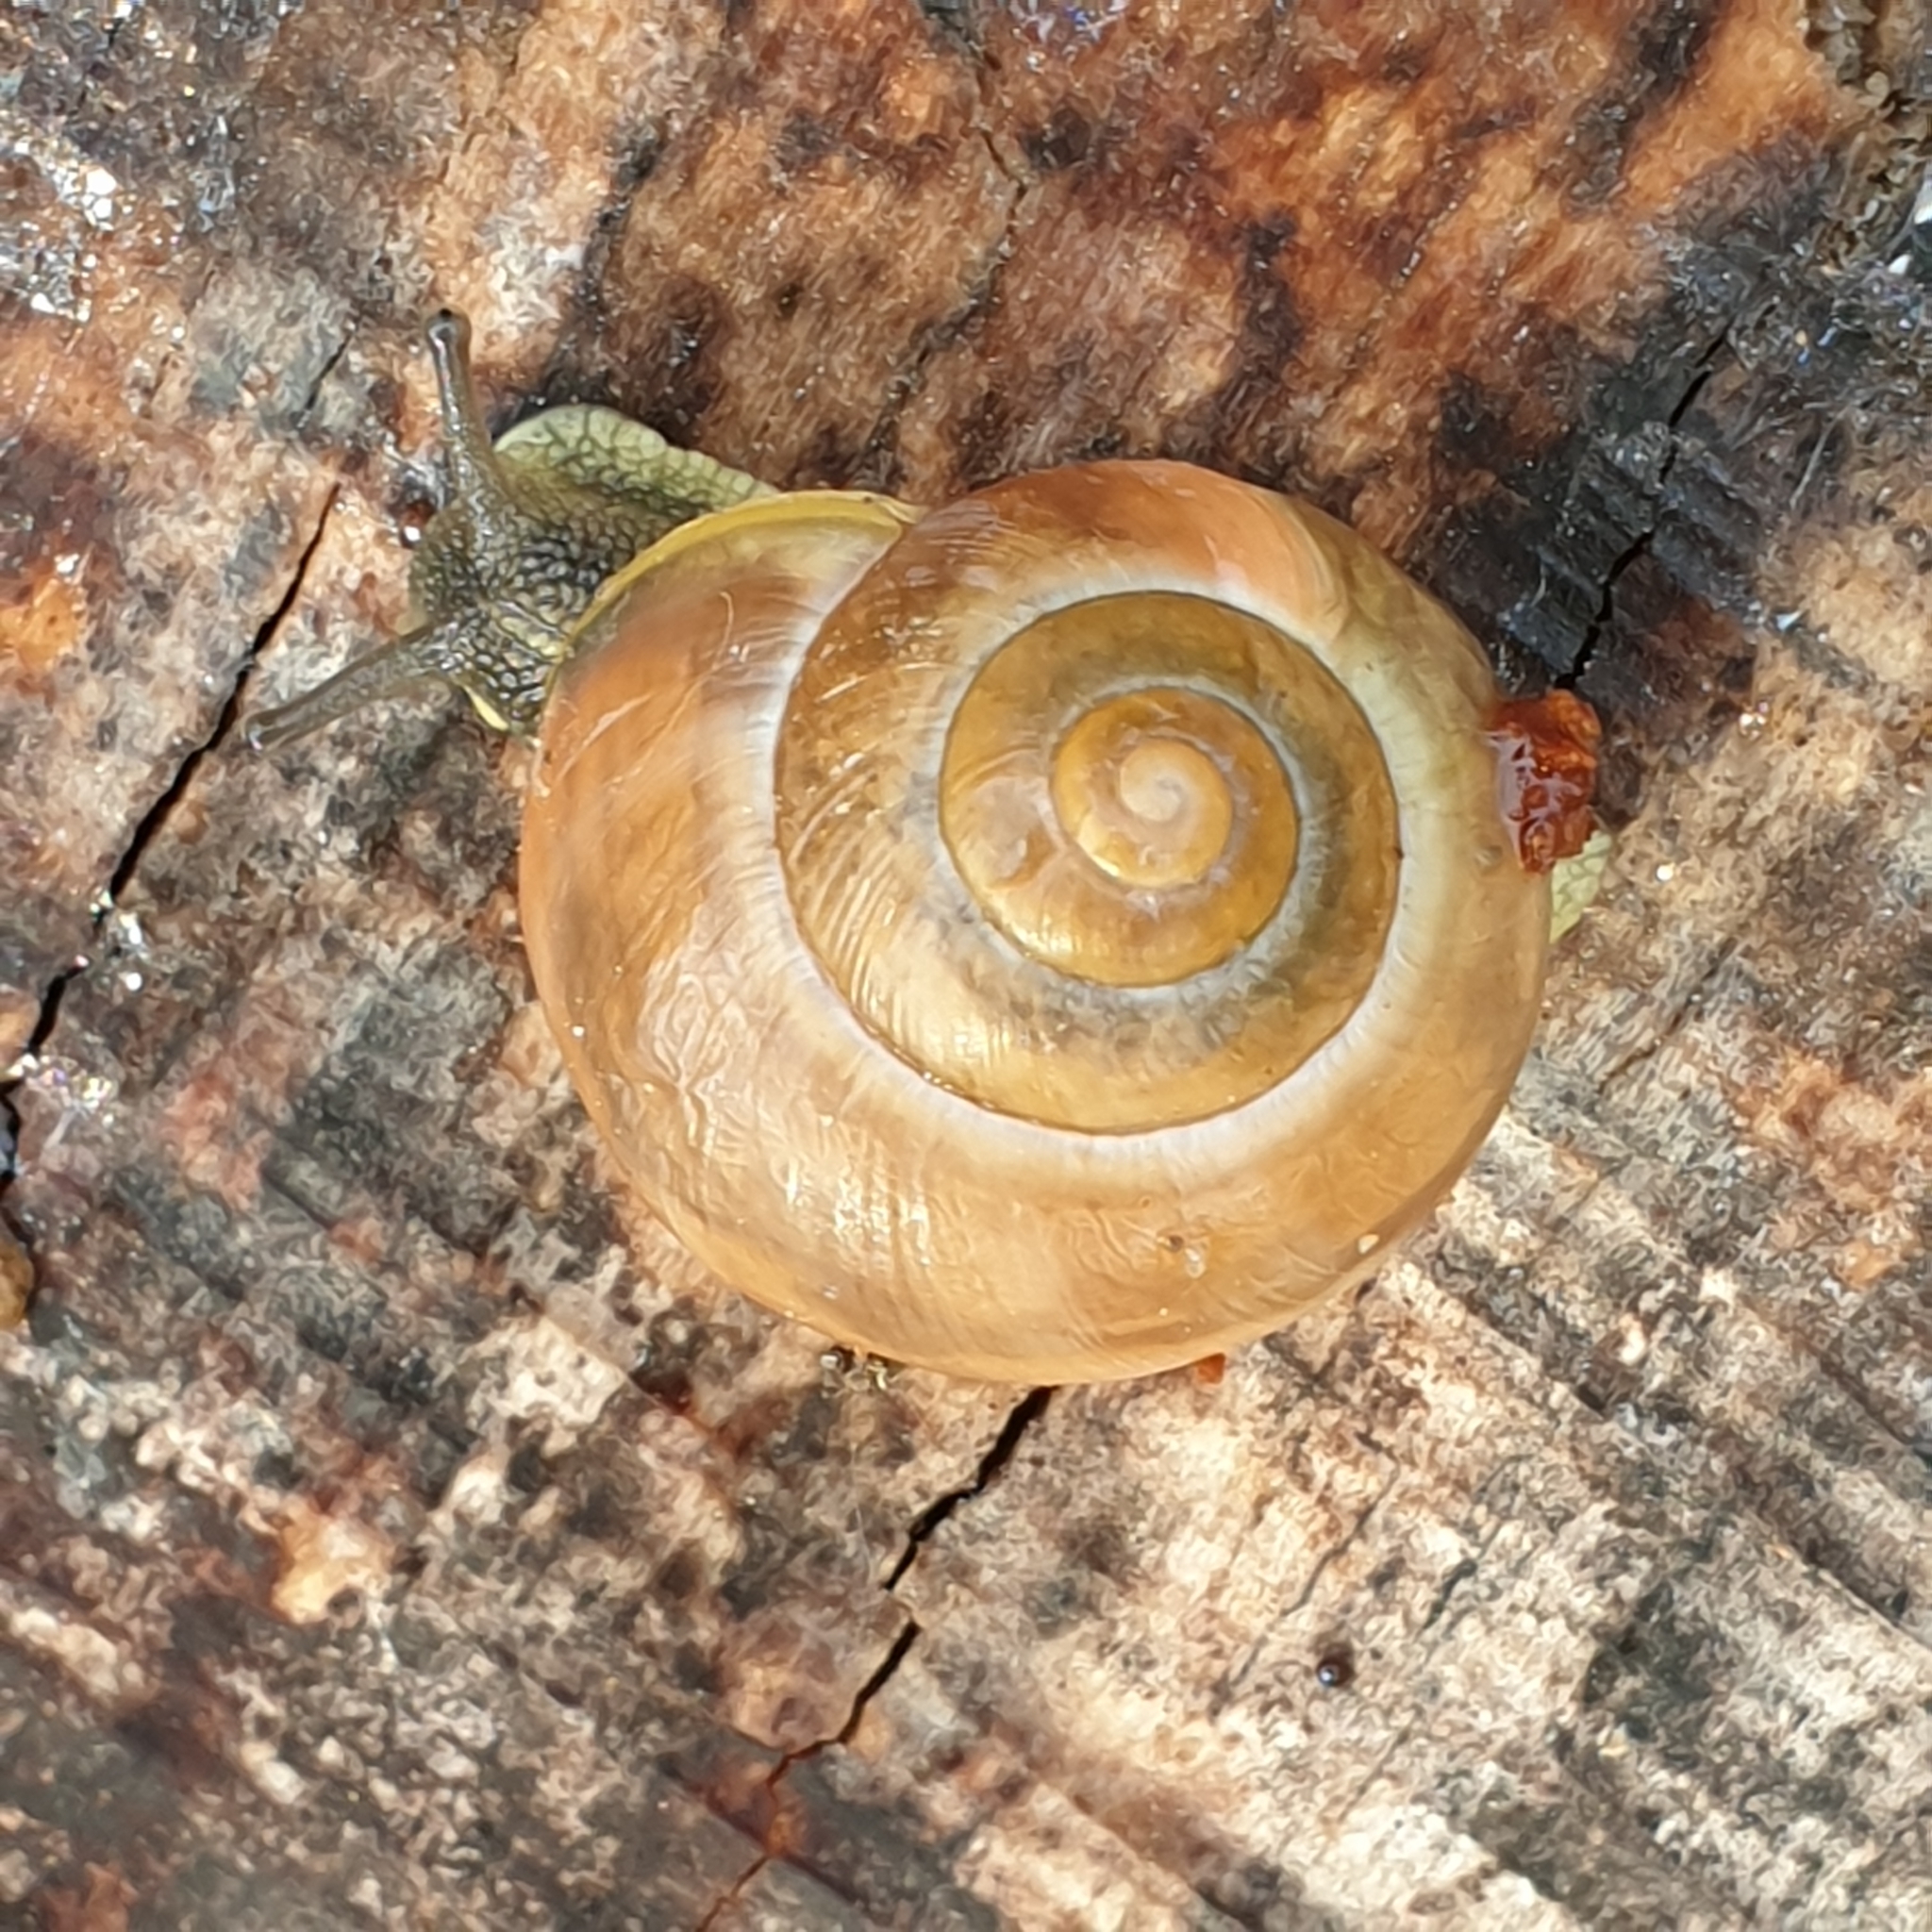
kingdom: Animalia
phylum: Mollusca
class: Gastropoda
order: Stylommatophora
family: Helicidae
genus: Cepaea
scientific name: Cepaea
